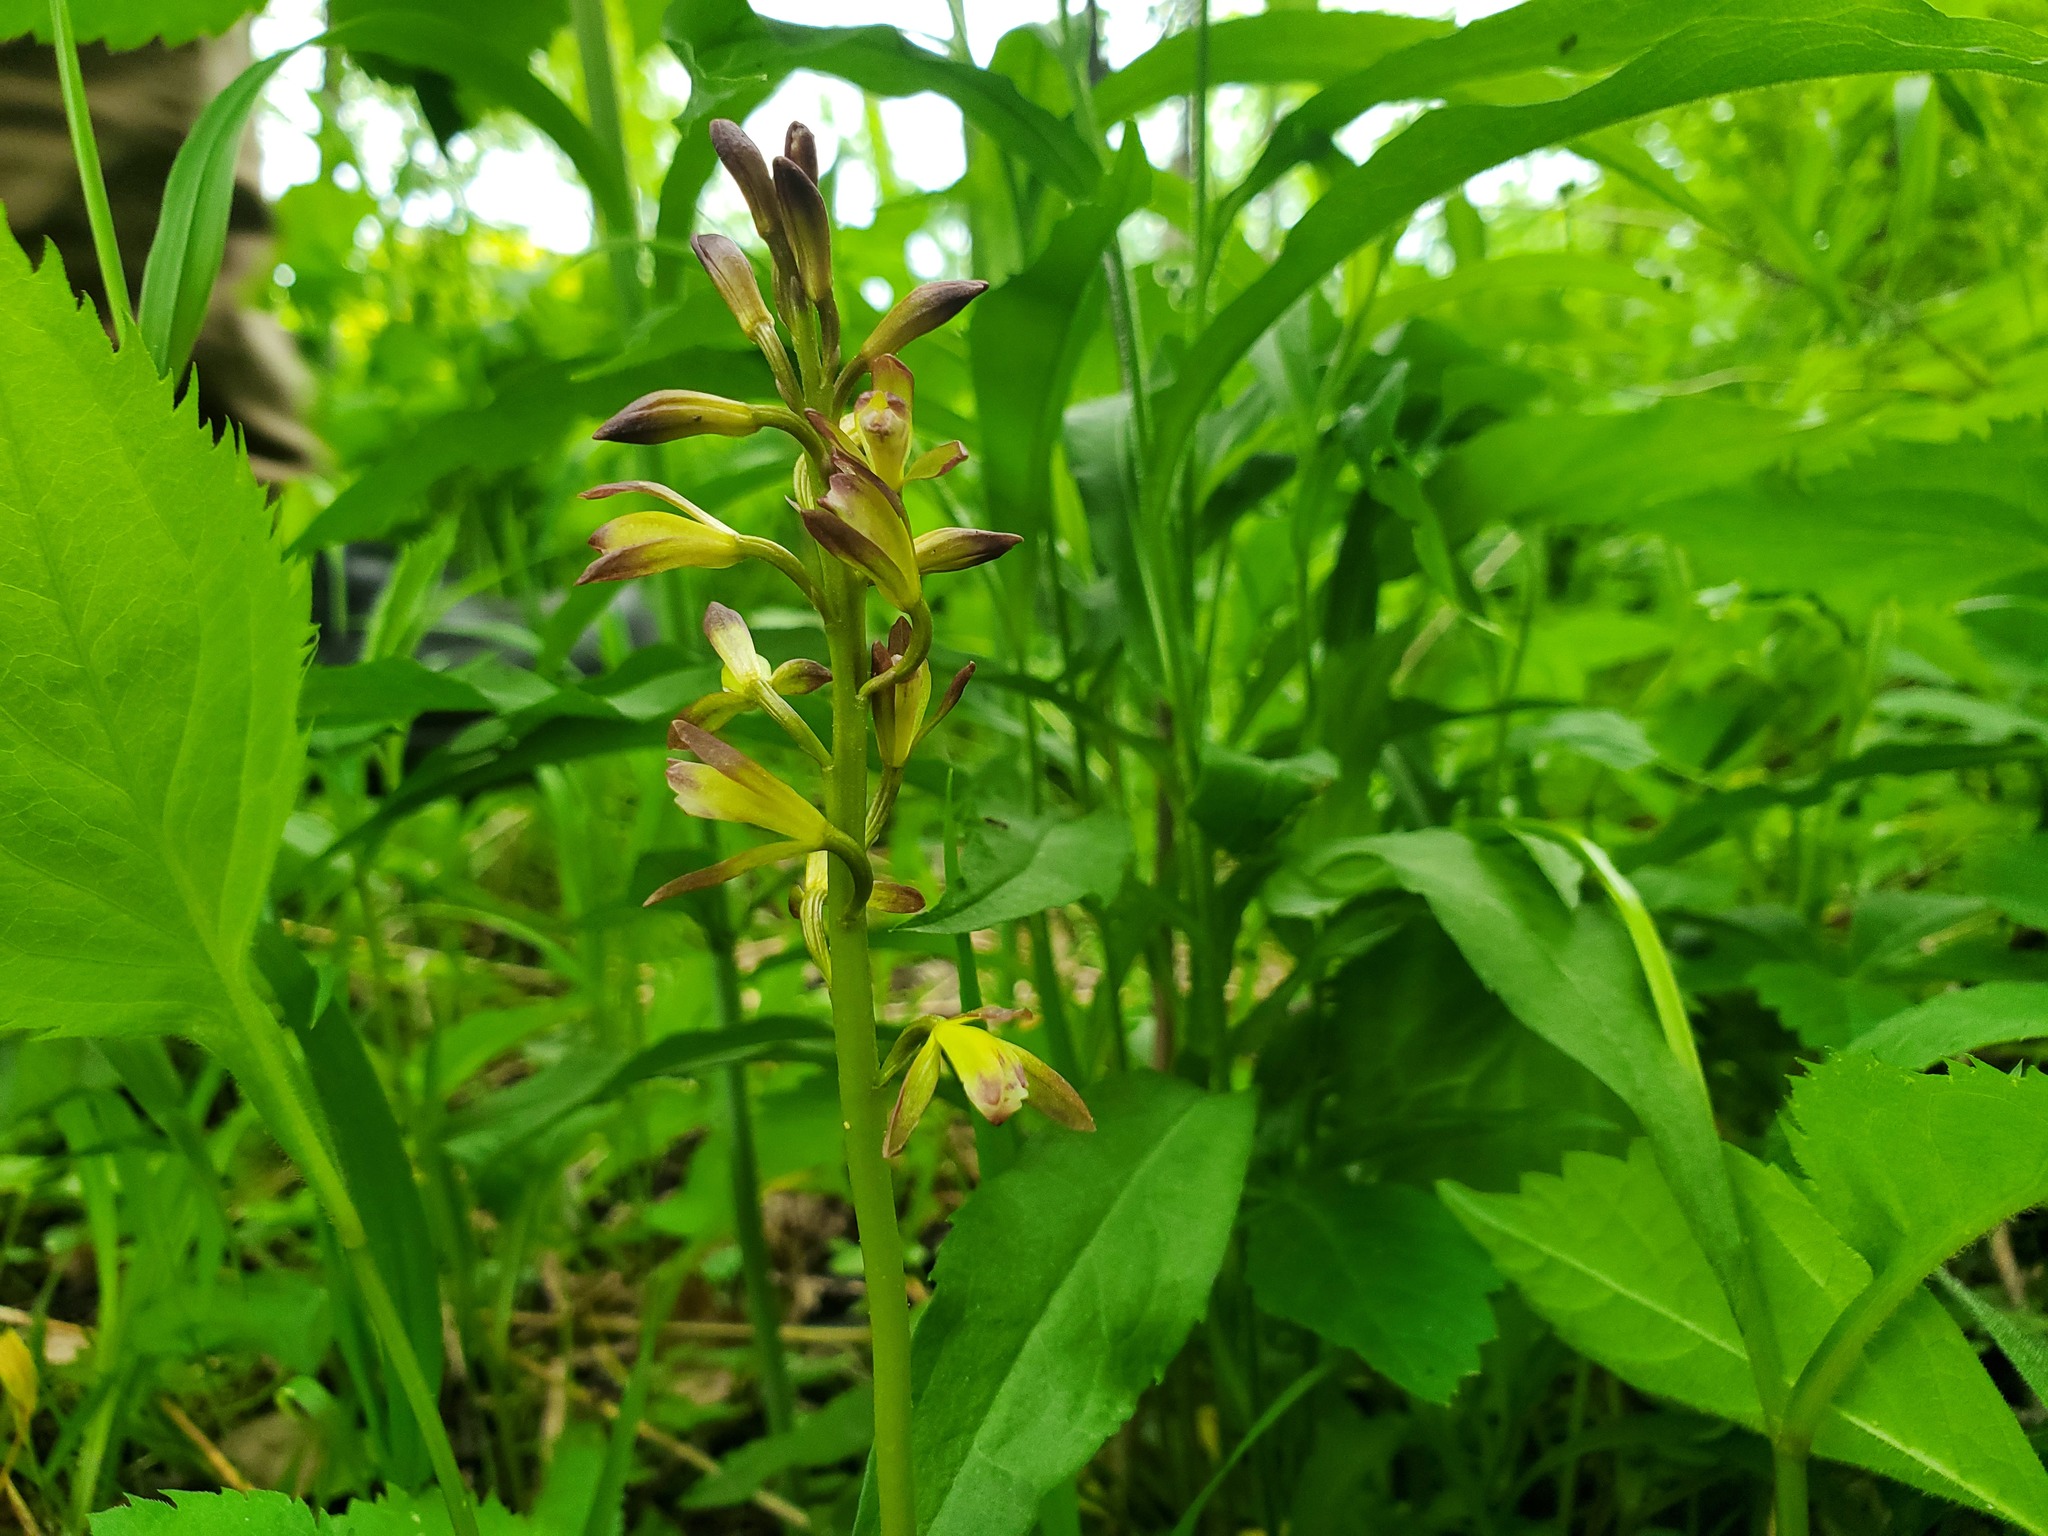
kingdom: Plantae
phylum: Tracheophyta
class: Liliopsida
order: Asparagales
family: Orchidaceae
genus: Aplectrum
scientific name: Aplectrum hyemale
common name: Adam-and-eve
